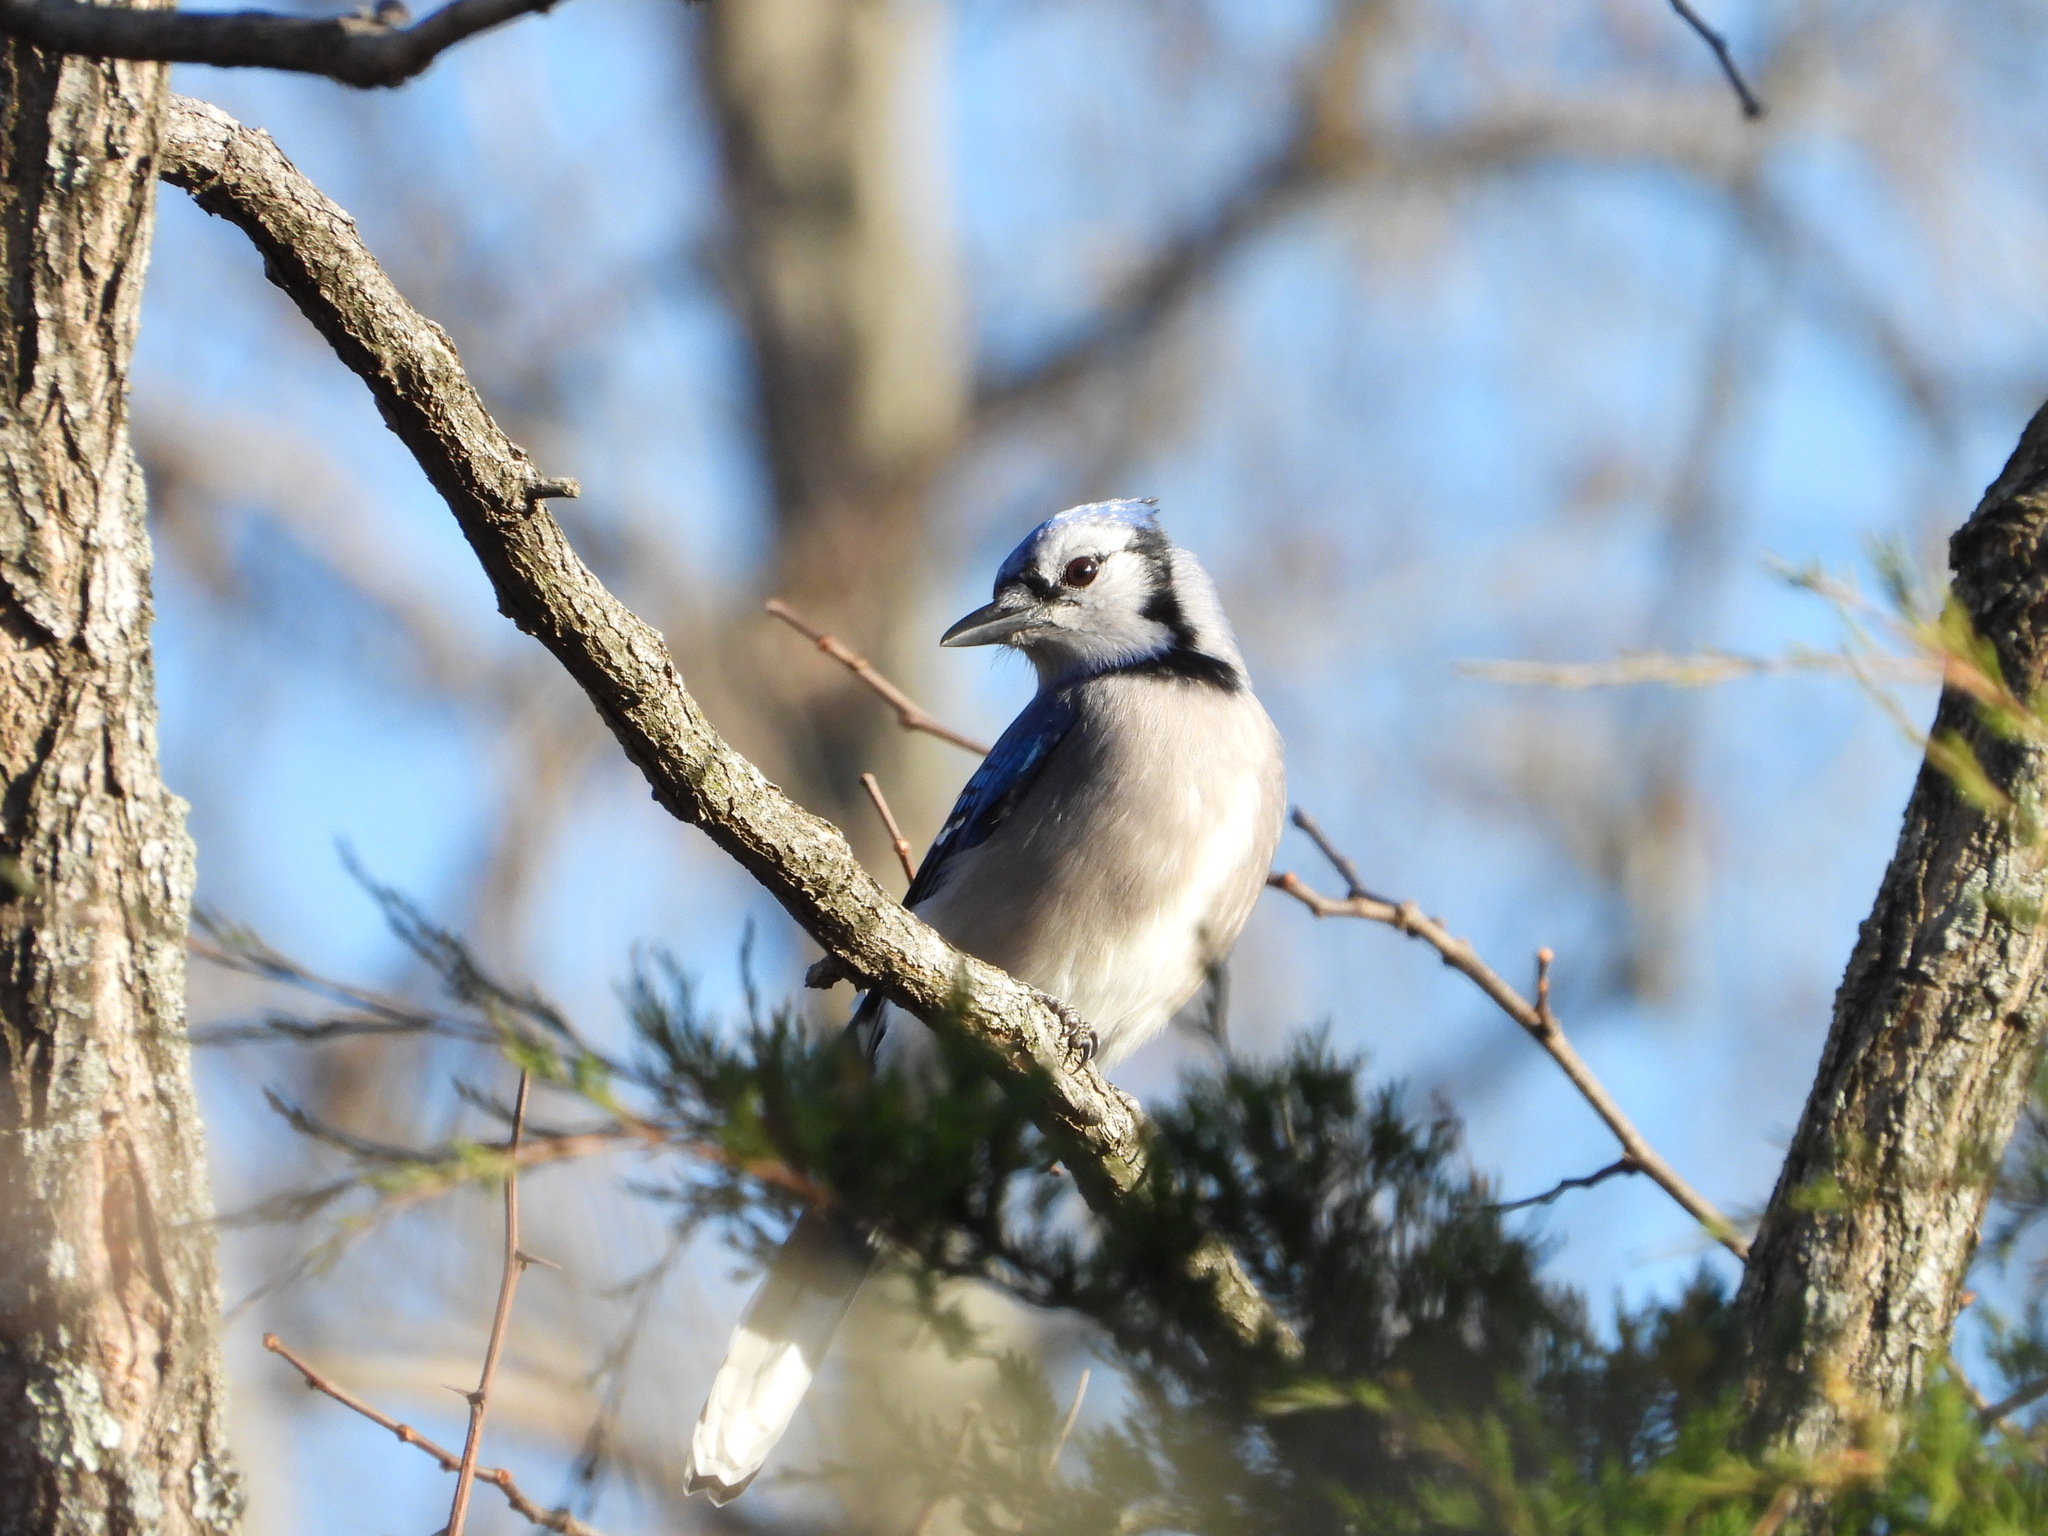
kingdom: Animalia
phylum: Chordata
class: Aves
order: Passeriformes
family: Corvidae
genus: Cyanocitta
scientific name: Cyanocitta cristata
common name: Blue jay
